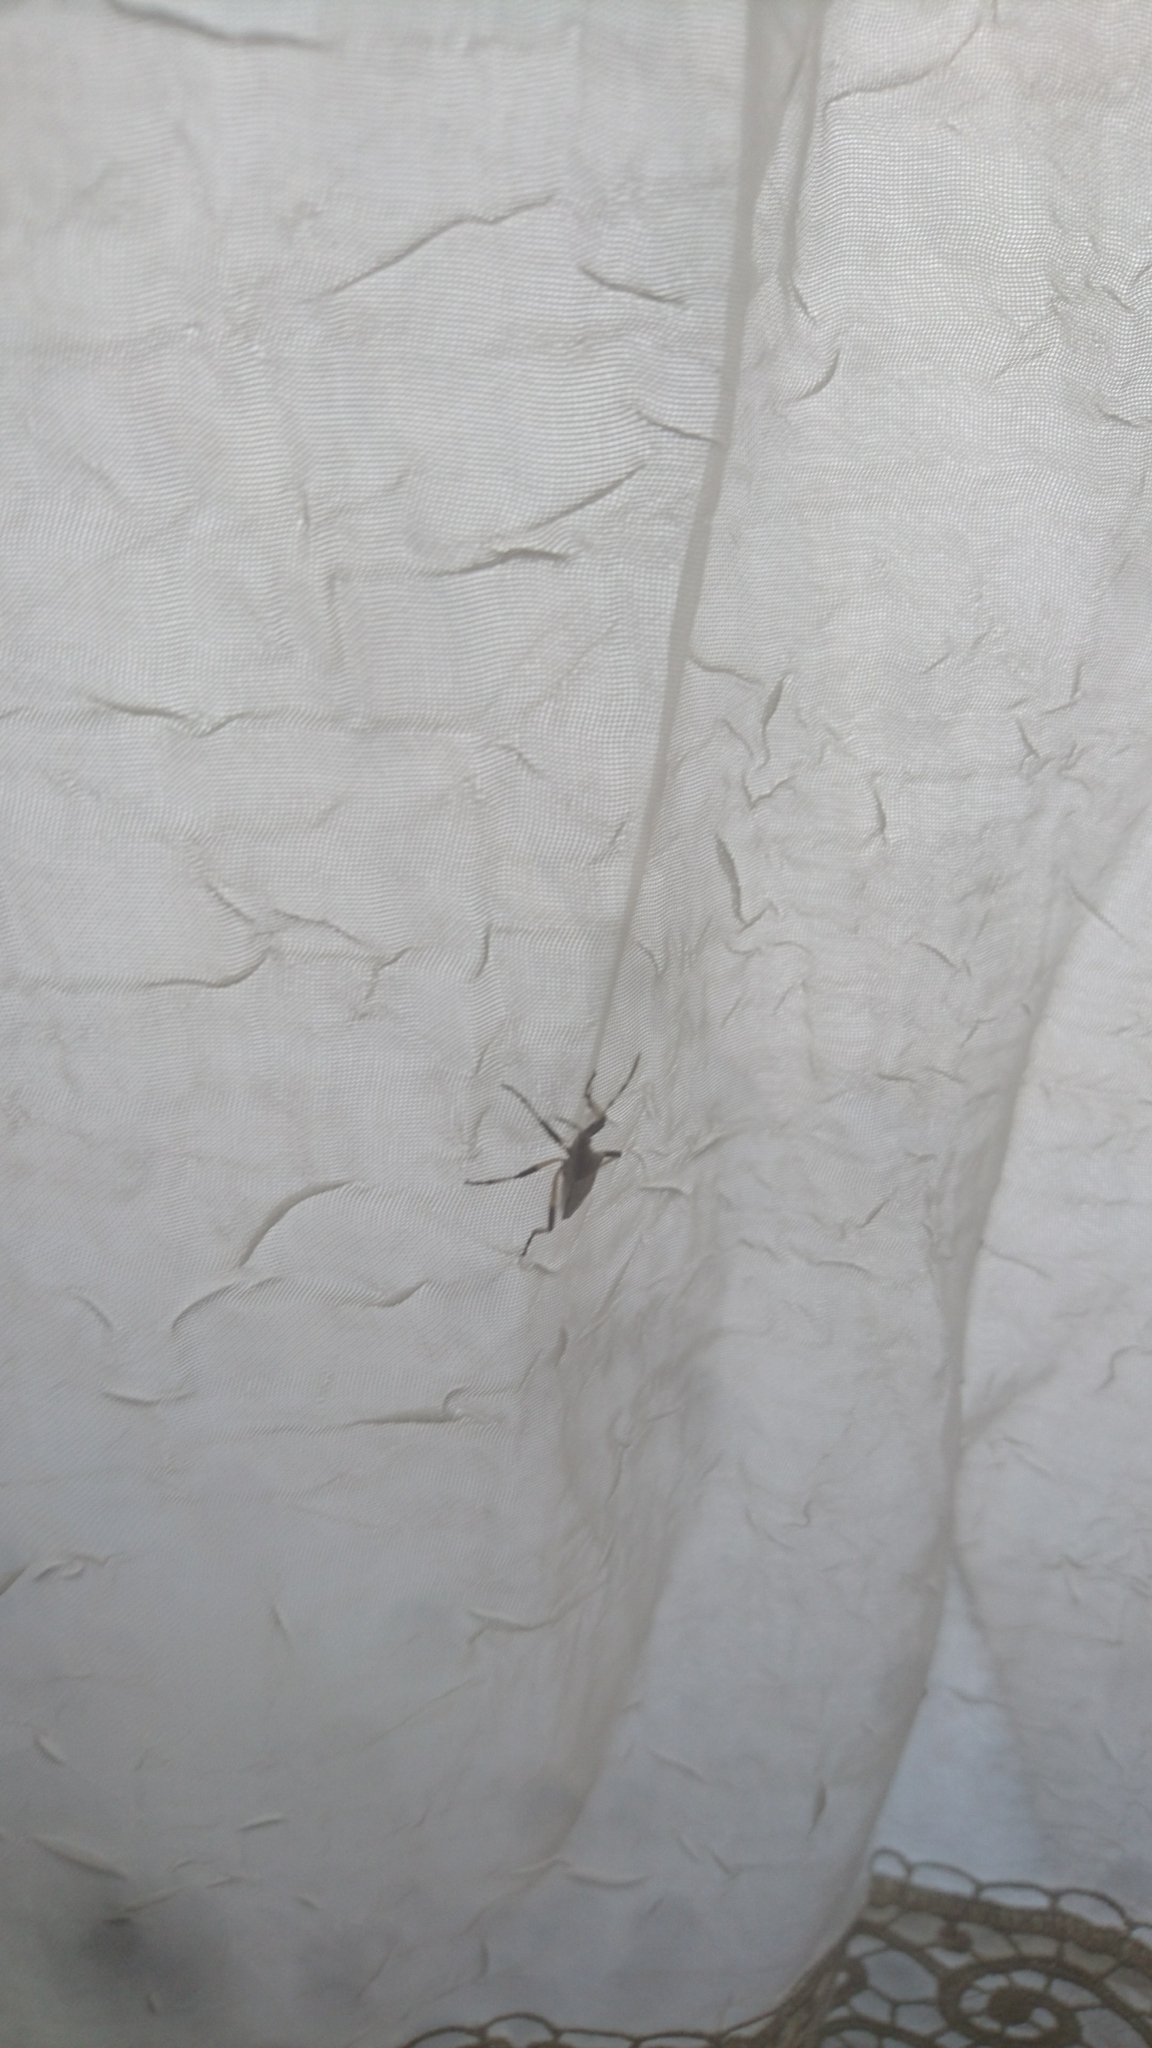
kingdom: Animalia
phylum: Arthropoda
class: Insecta
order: Hemiptera
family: Stenocephalidae
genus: Dicranocephalus
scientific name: Dicranocephalus albipes
